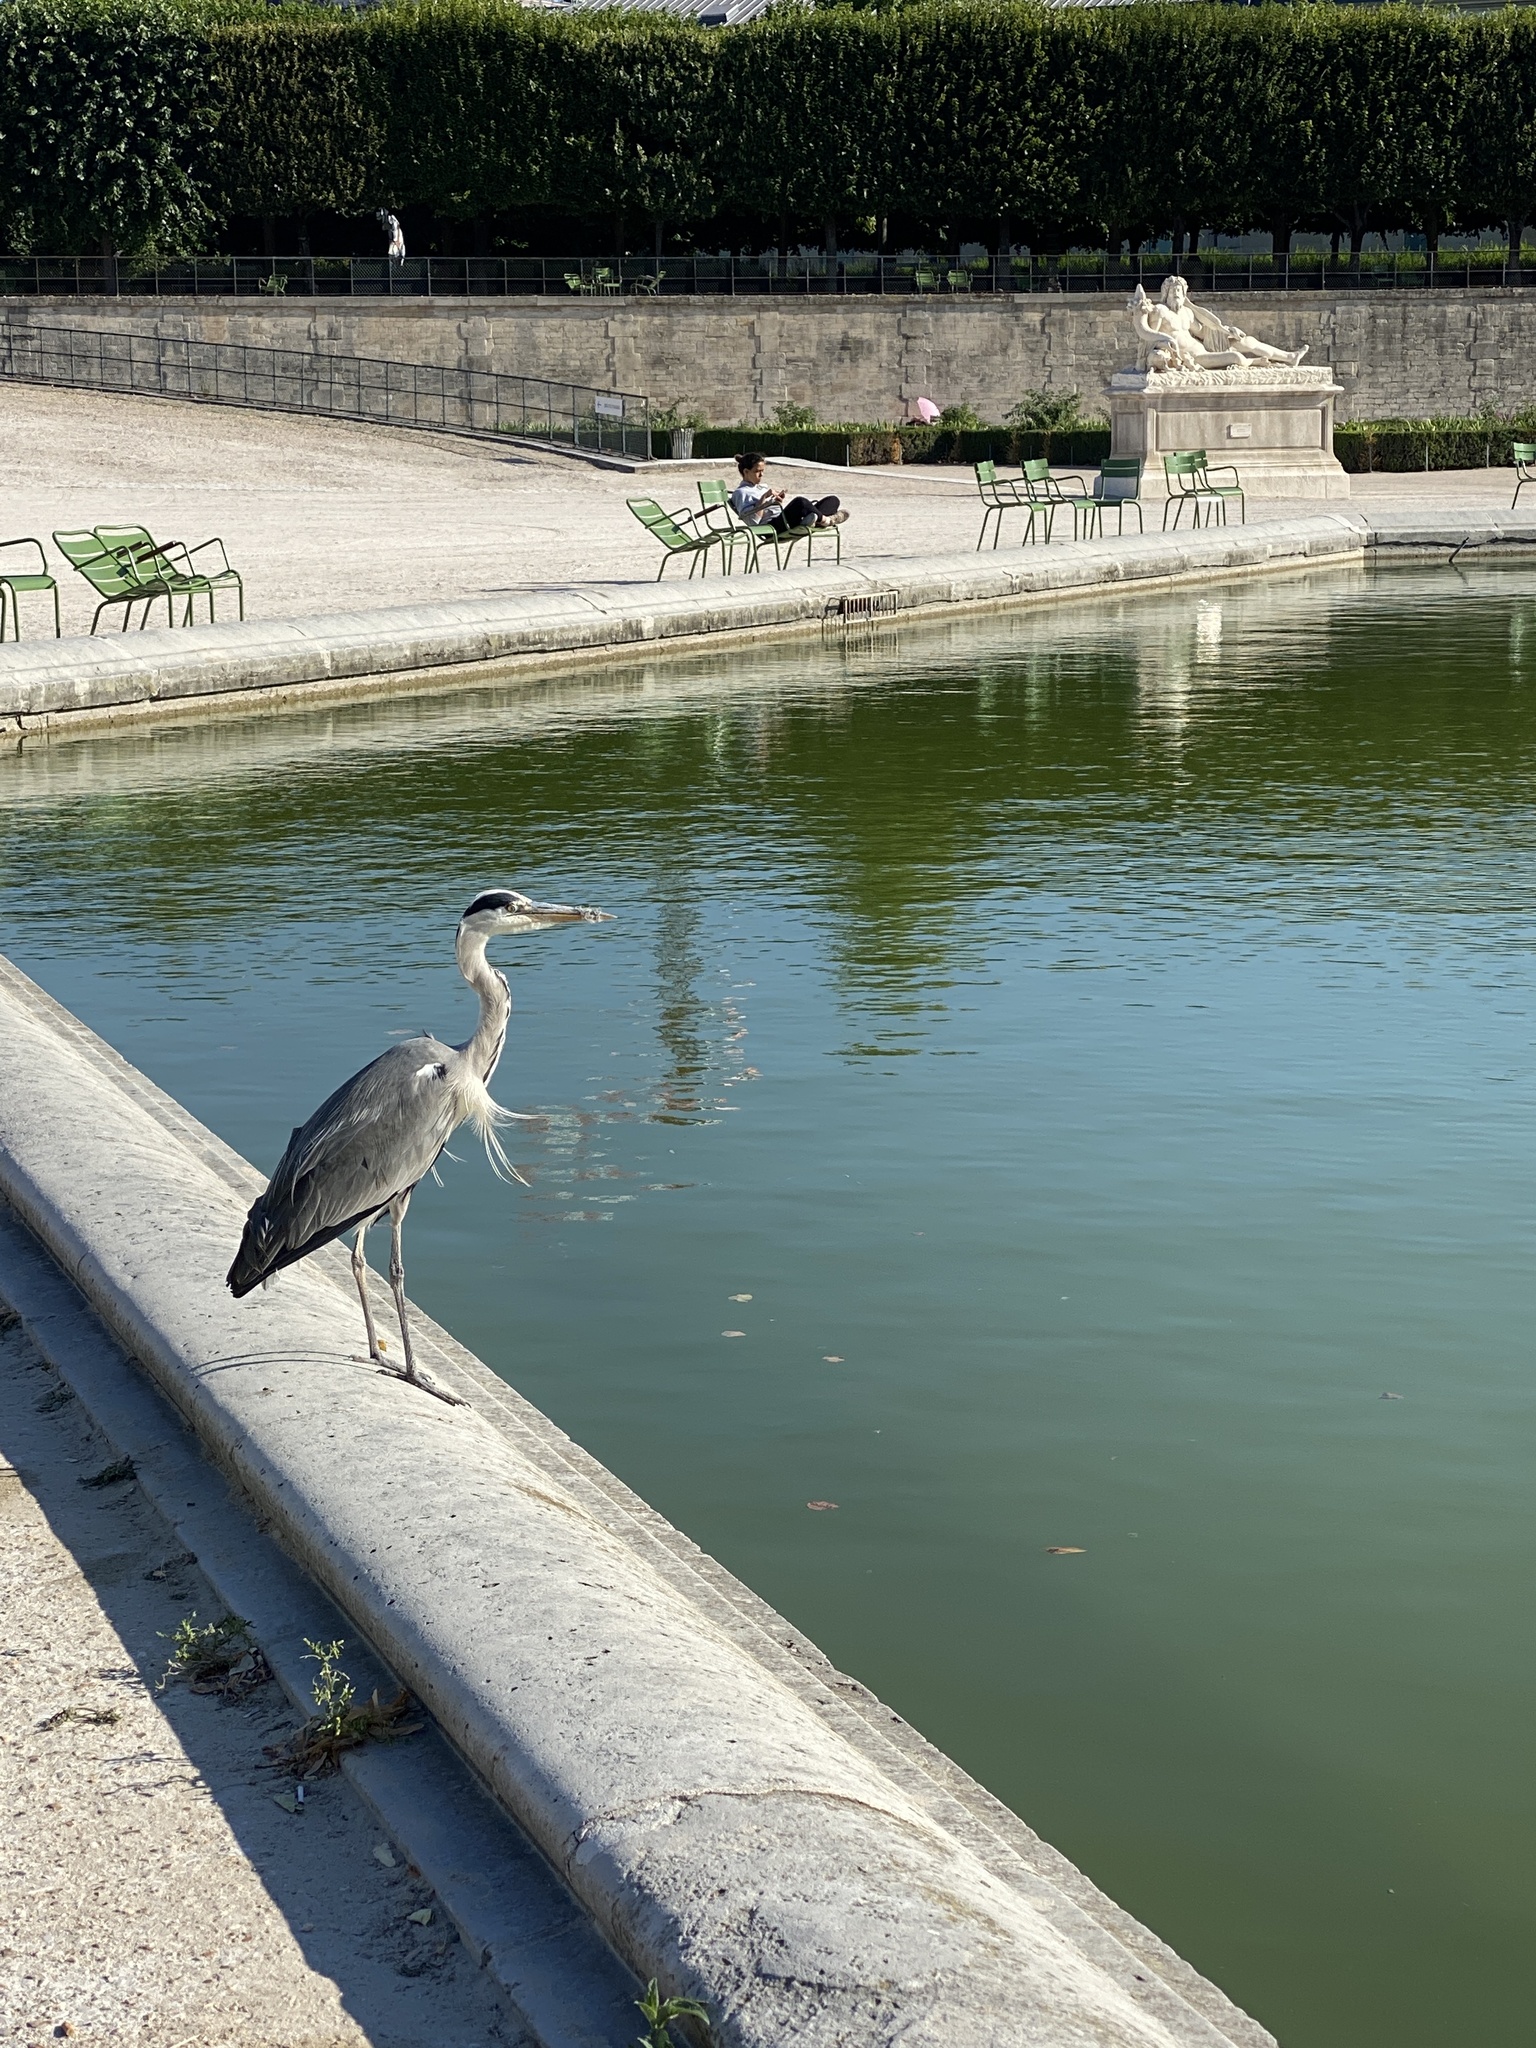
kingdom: Animalia
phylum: Chordata
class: Aves
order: Pelecaniformes
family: Ardeidae
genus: Ardea
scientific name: Ardea cinerea
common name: Grey heron
